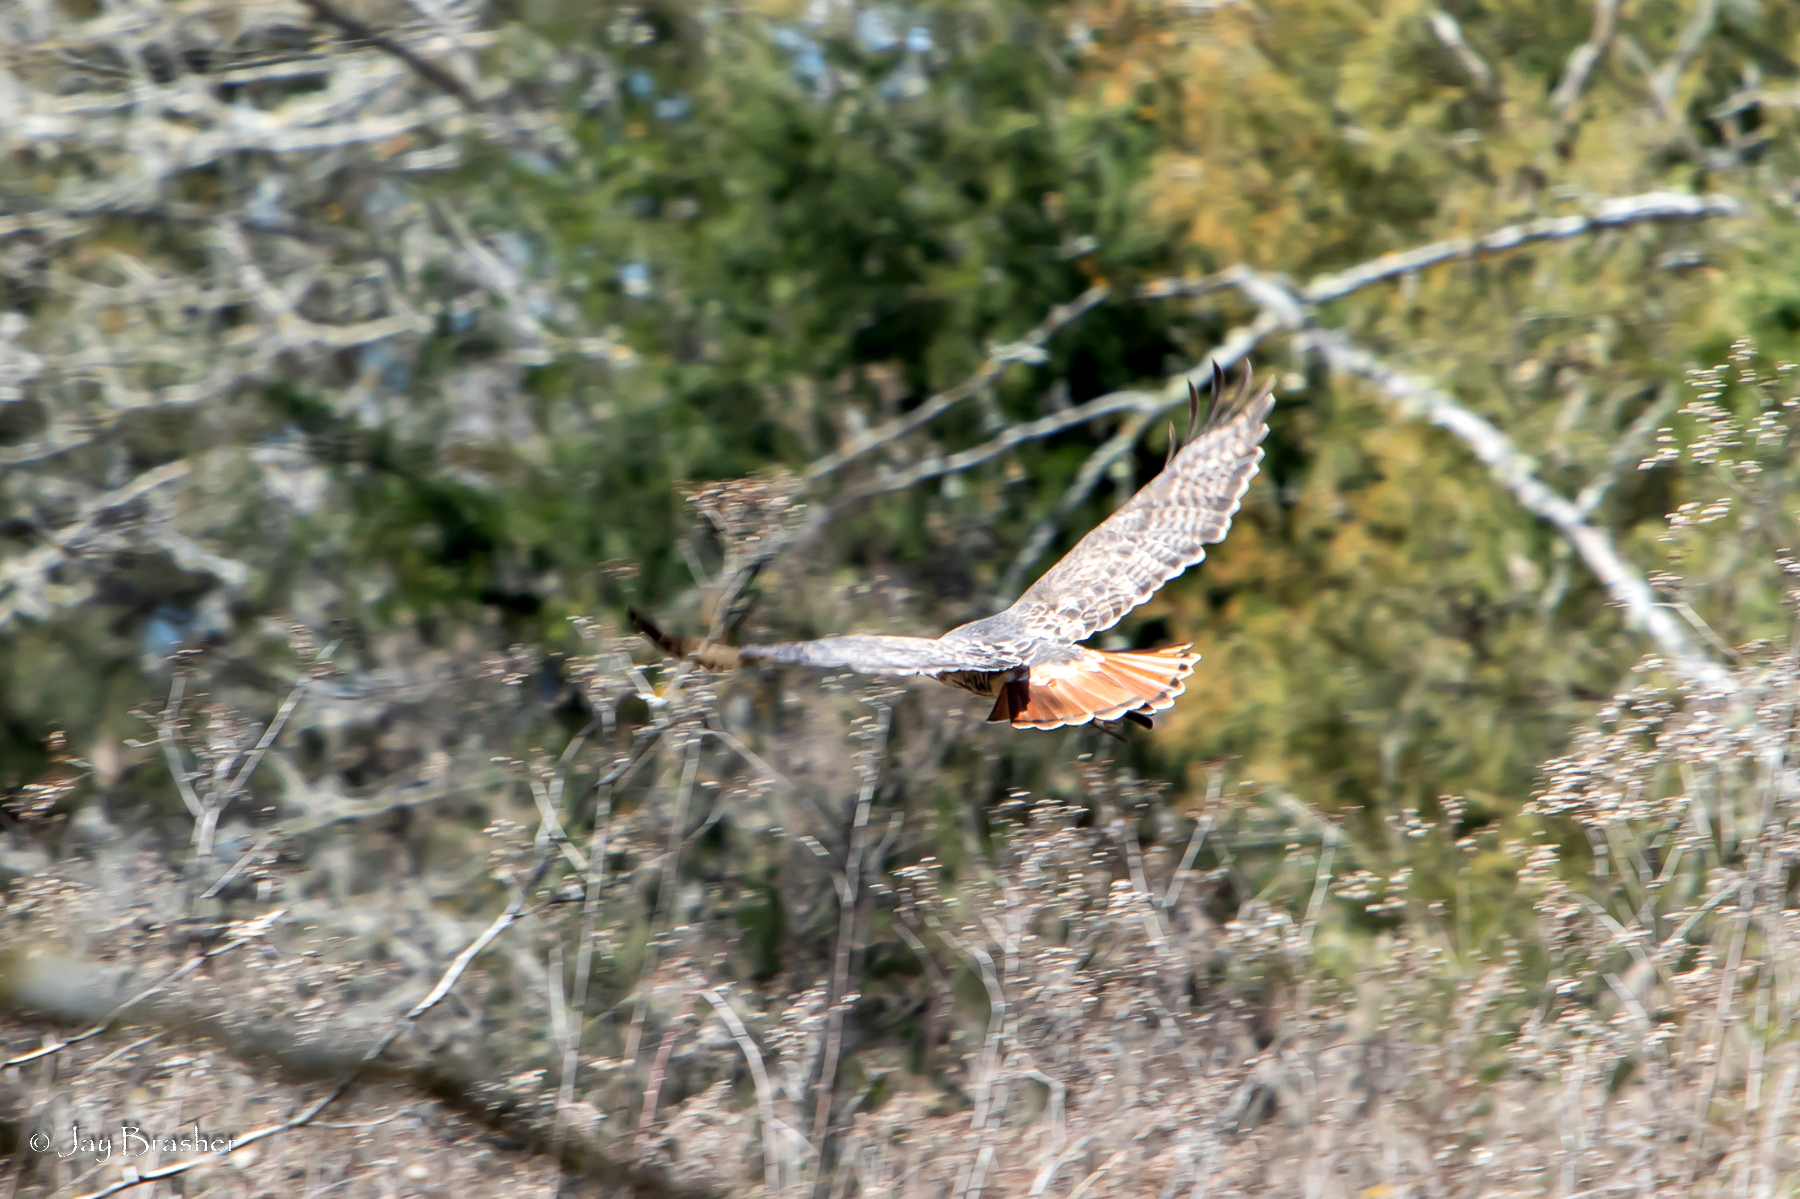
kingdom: Animalia
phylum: Chordata
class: Aves
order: Accipitriformes
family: Accipitridae
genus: Buteo
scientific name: Buteo jamaicensis
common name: Red-tailed hawk
